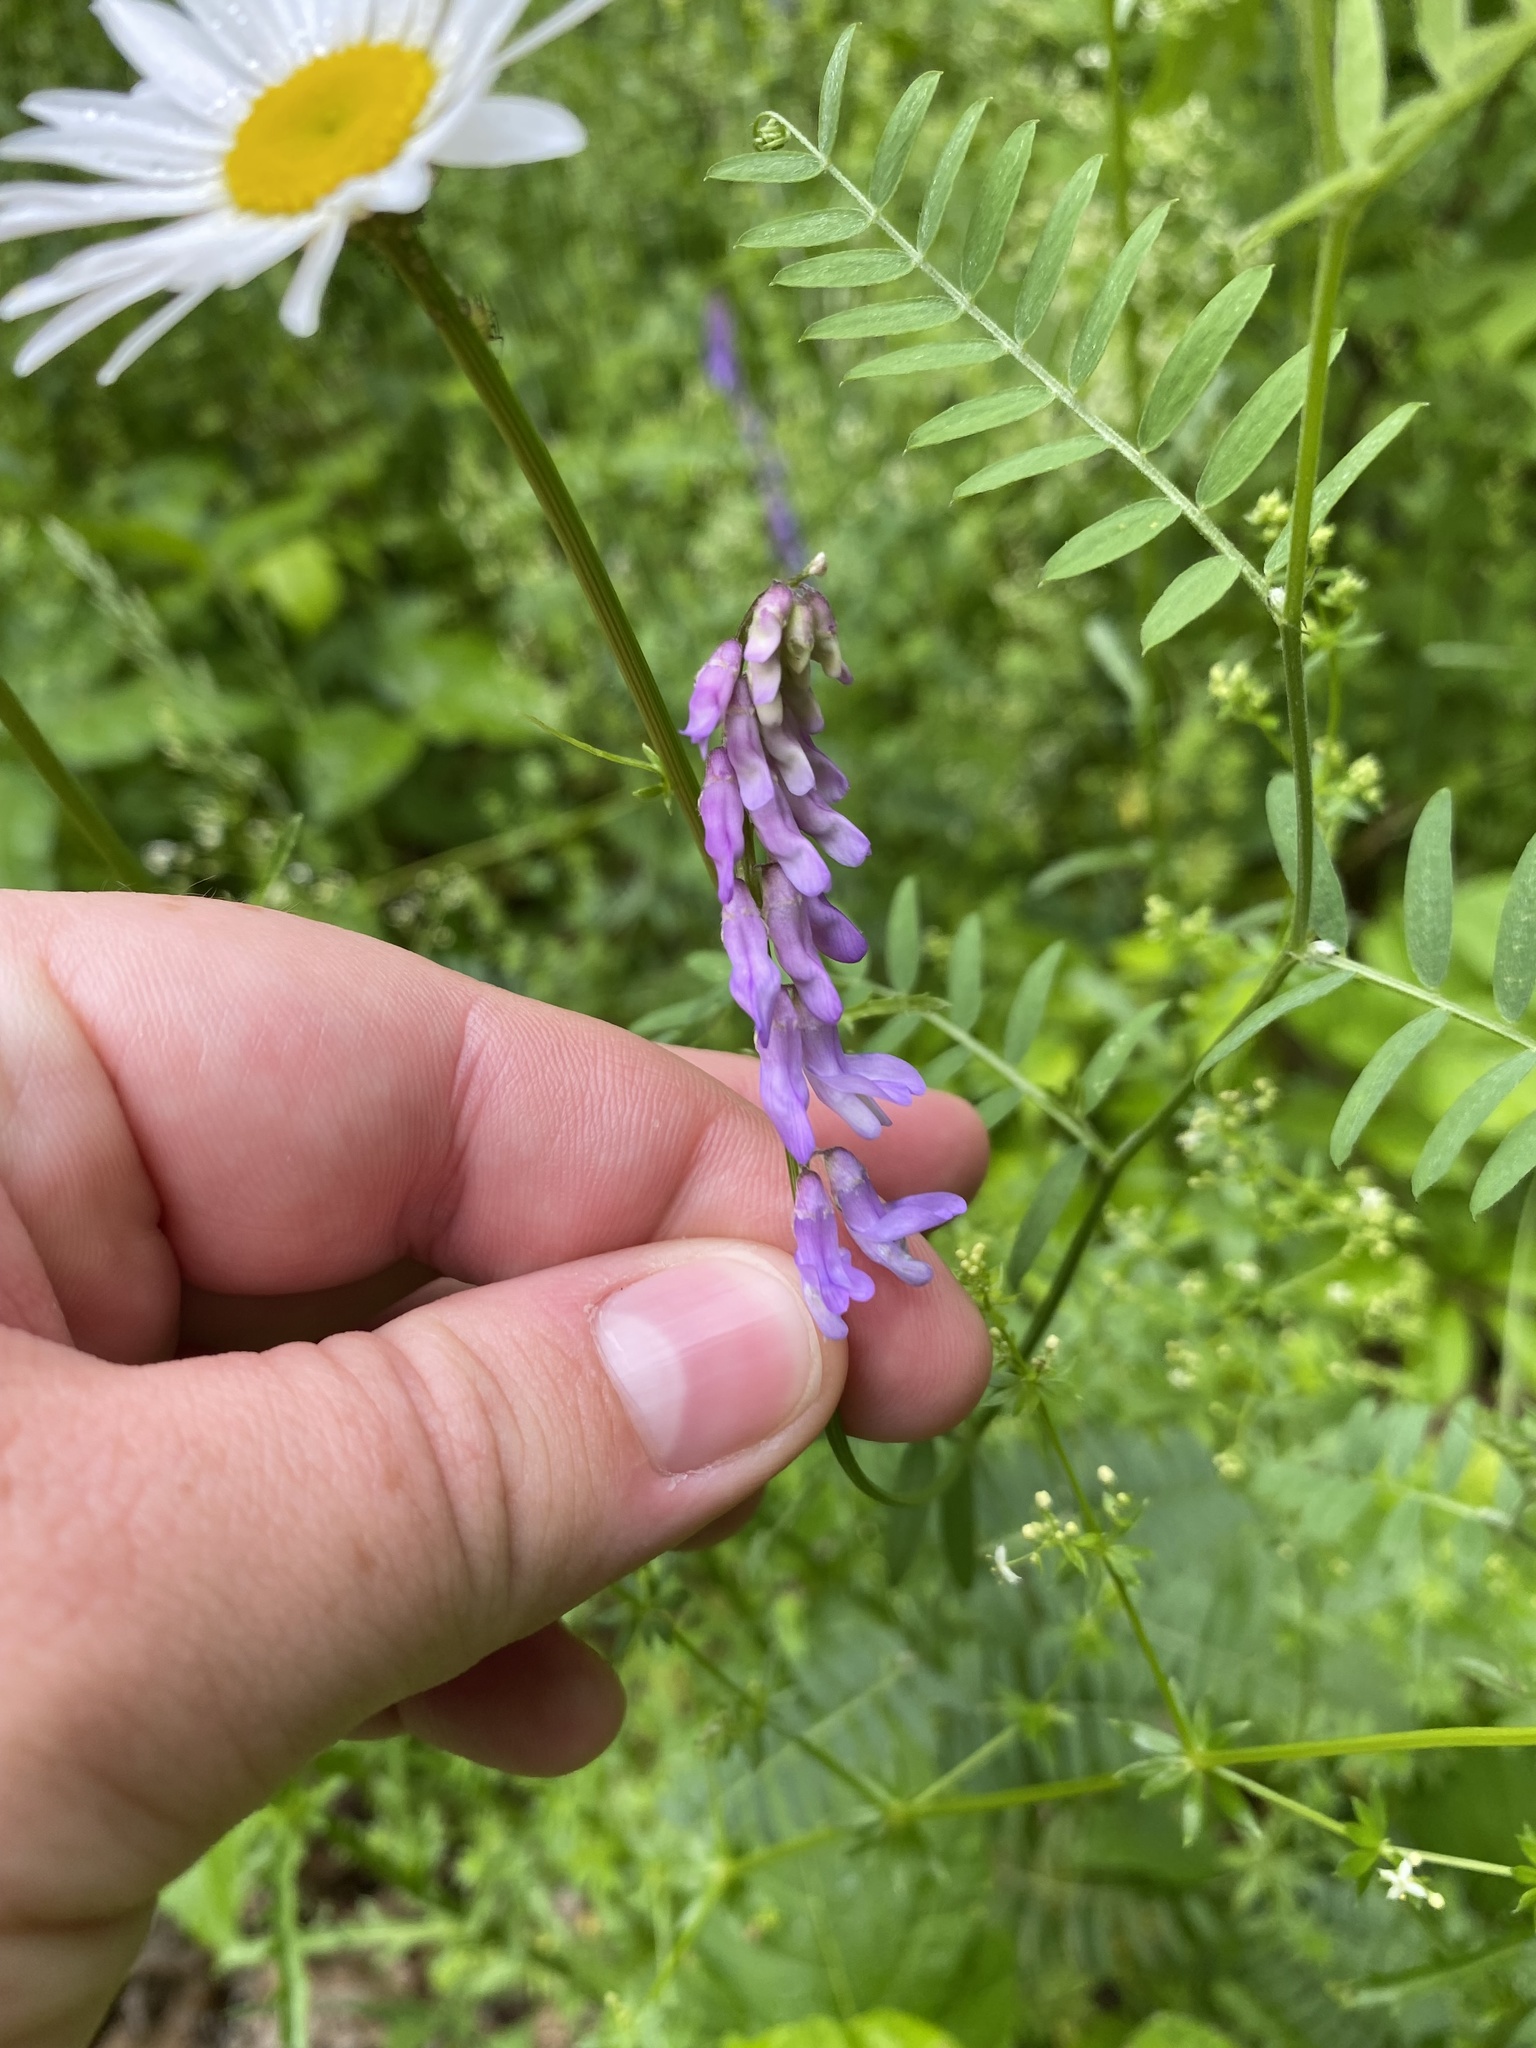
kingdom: Plantae
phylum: Tracheophyta
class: Magnoliopsida
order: Fabales
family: Fabaceae
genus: Vicia
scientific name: Vicia cracca
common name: Bird vetch
